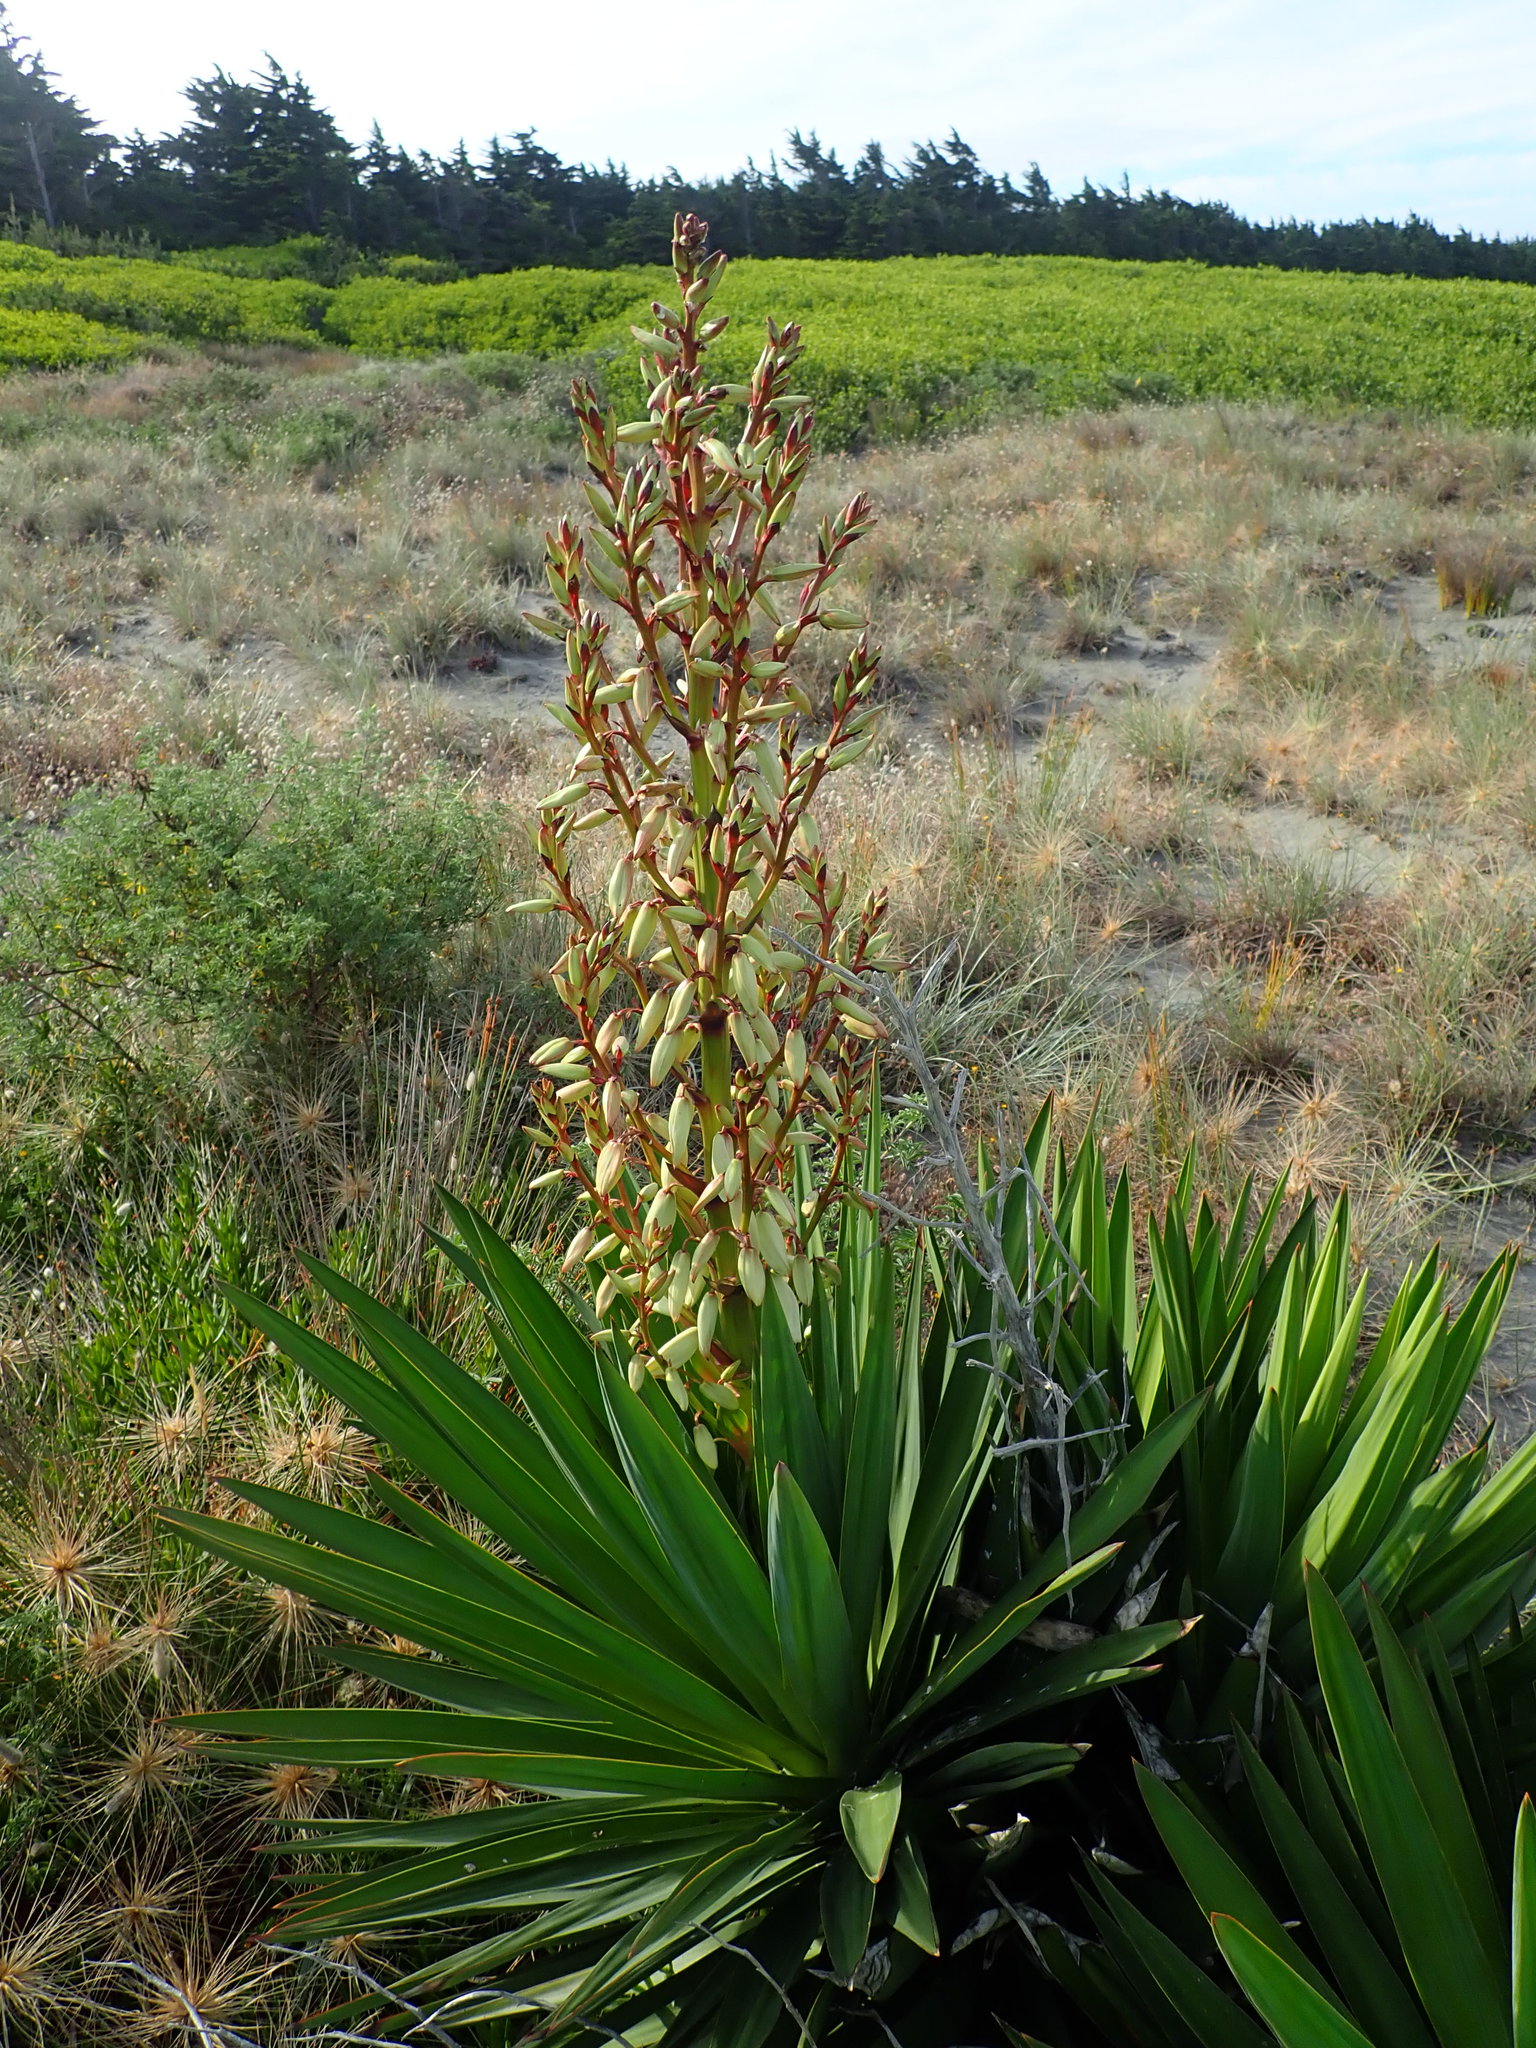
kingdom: Plantae
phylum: Tracheophyta
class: Liliopsida
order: Asparagales
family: Asparagaceae
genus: Yucca
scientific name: Yucca gloriosa
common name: Spanish-dagger
